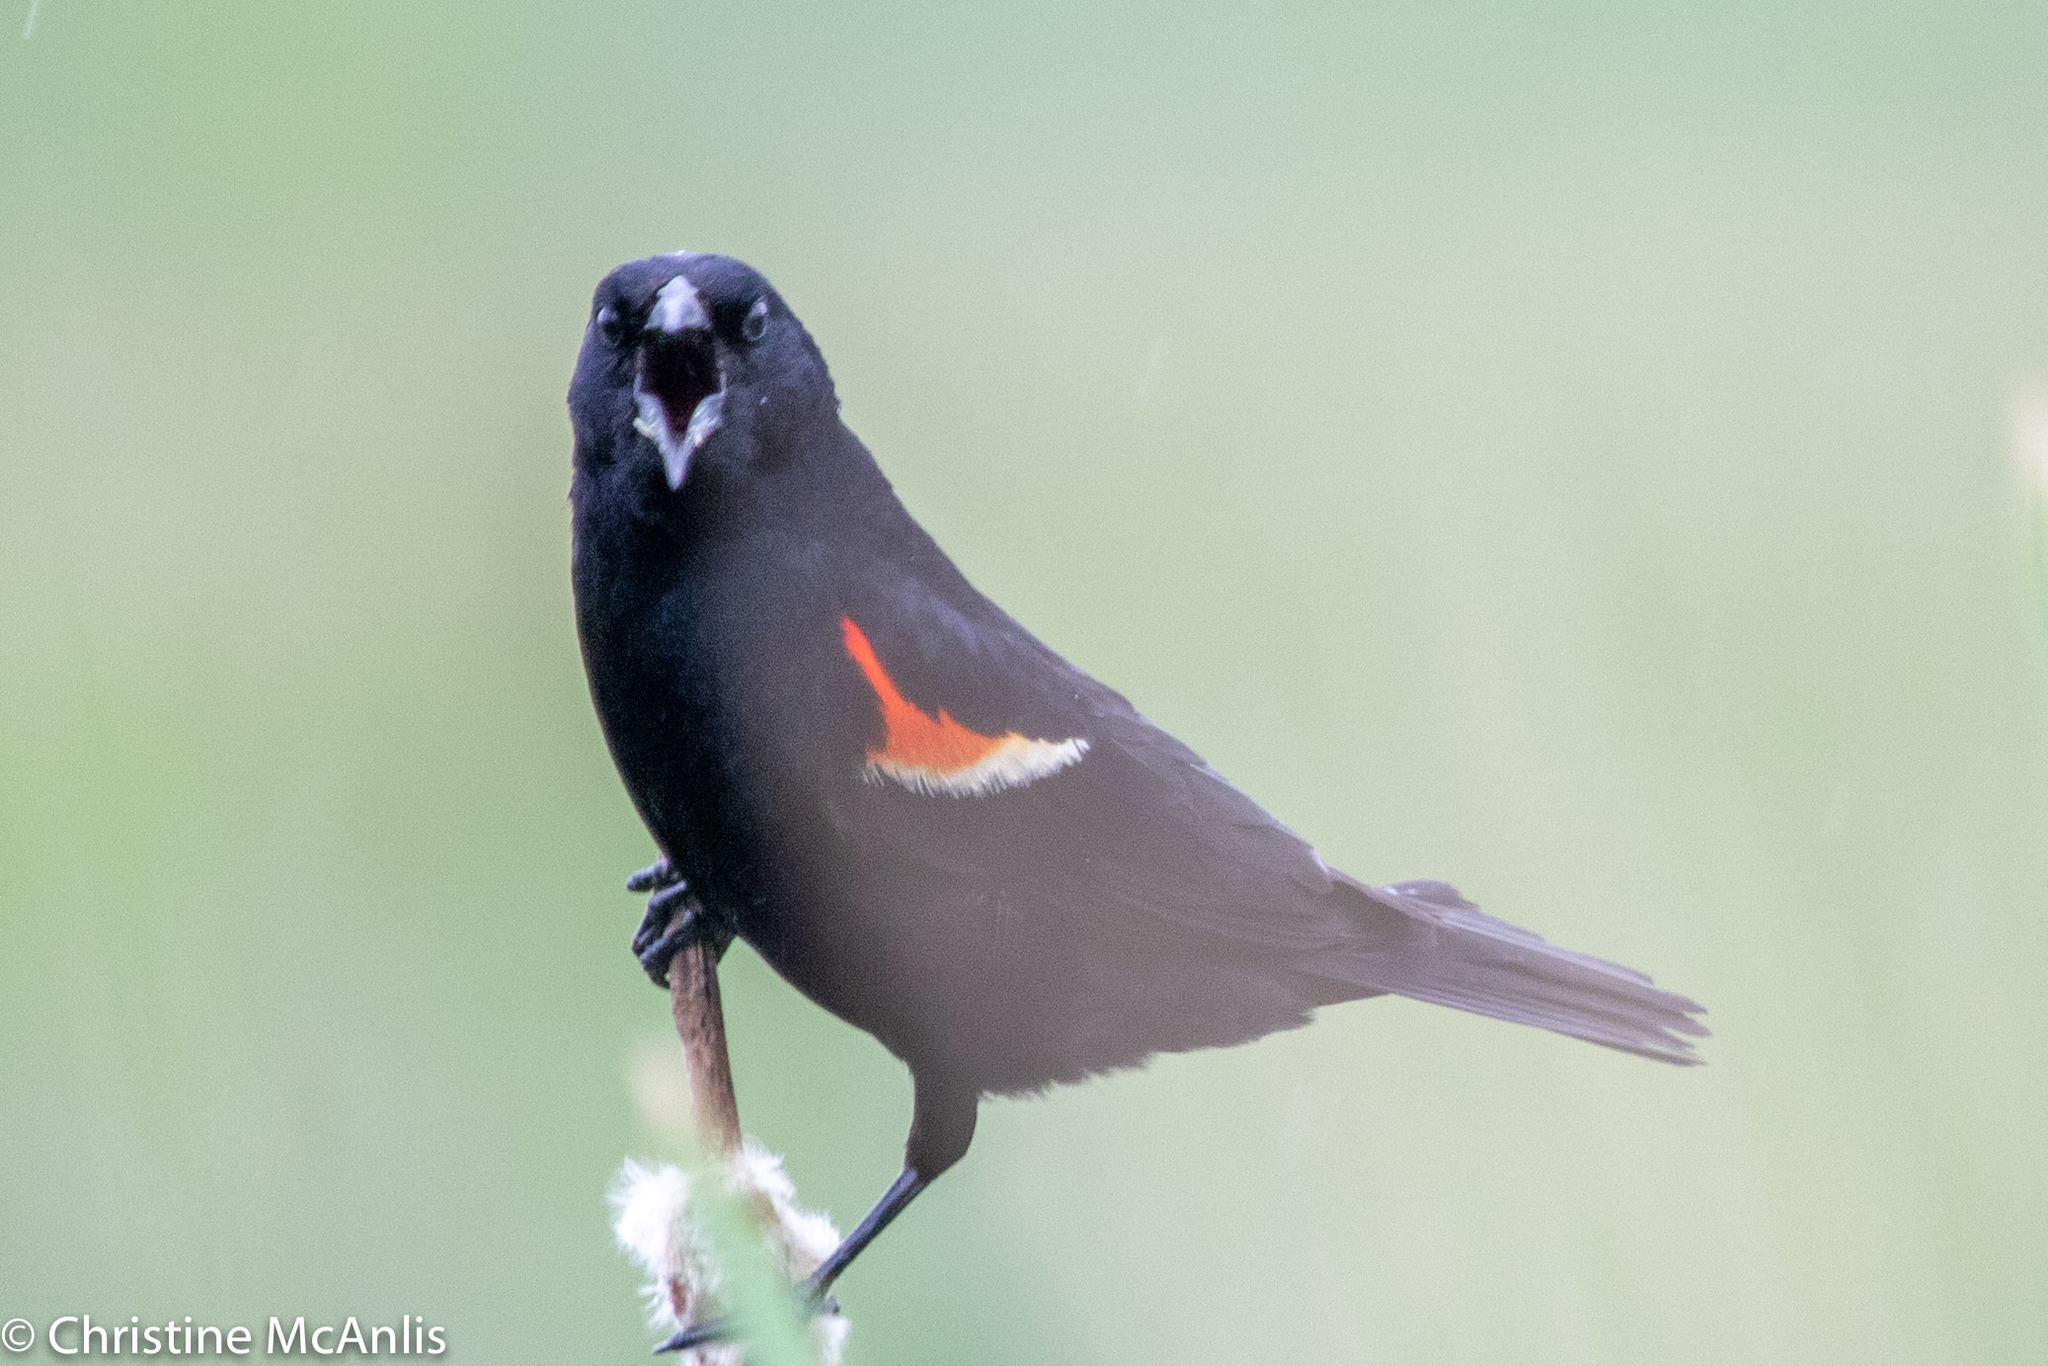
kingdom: Animalia
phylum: Chordata
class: Aves
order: Passeriformes
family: Icteridae
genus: Agelaius
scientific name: Agelaius phoeniceus
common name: Red-winged blackbird
